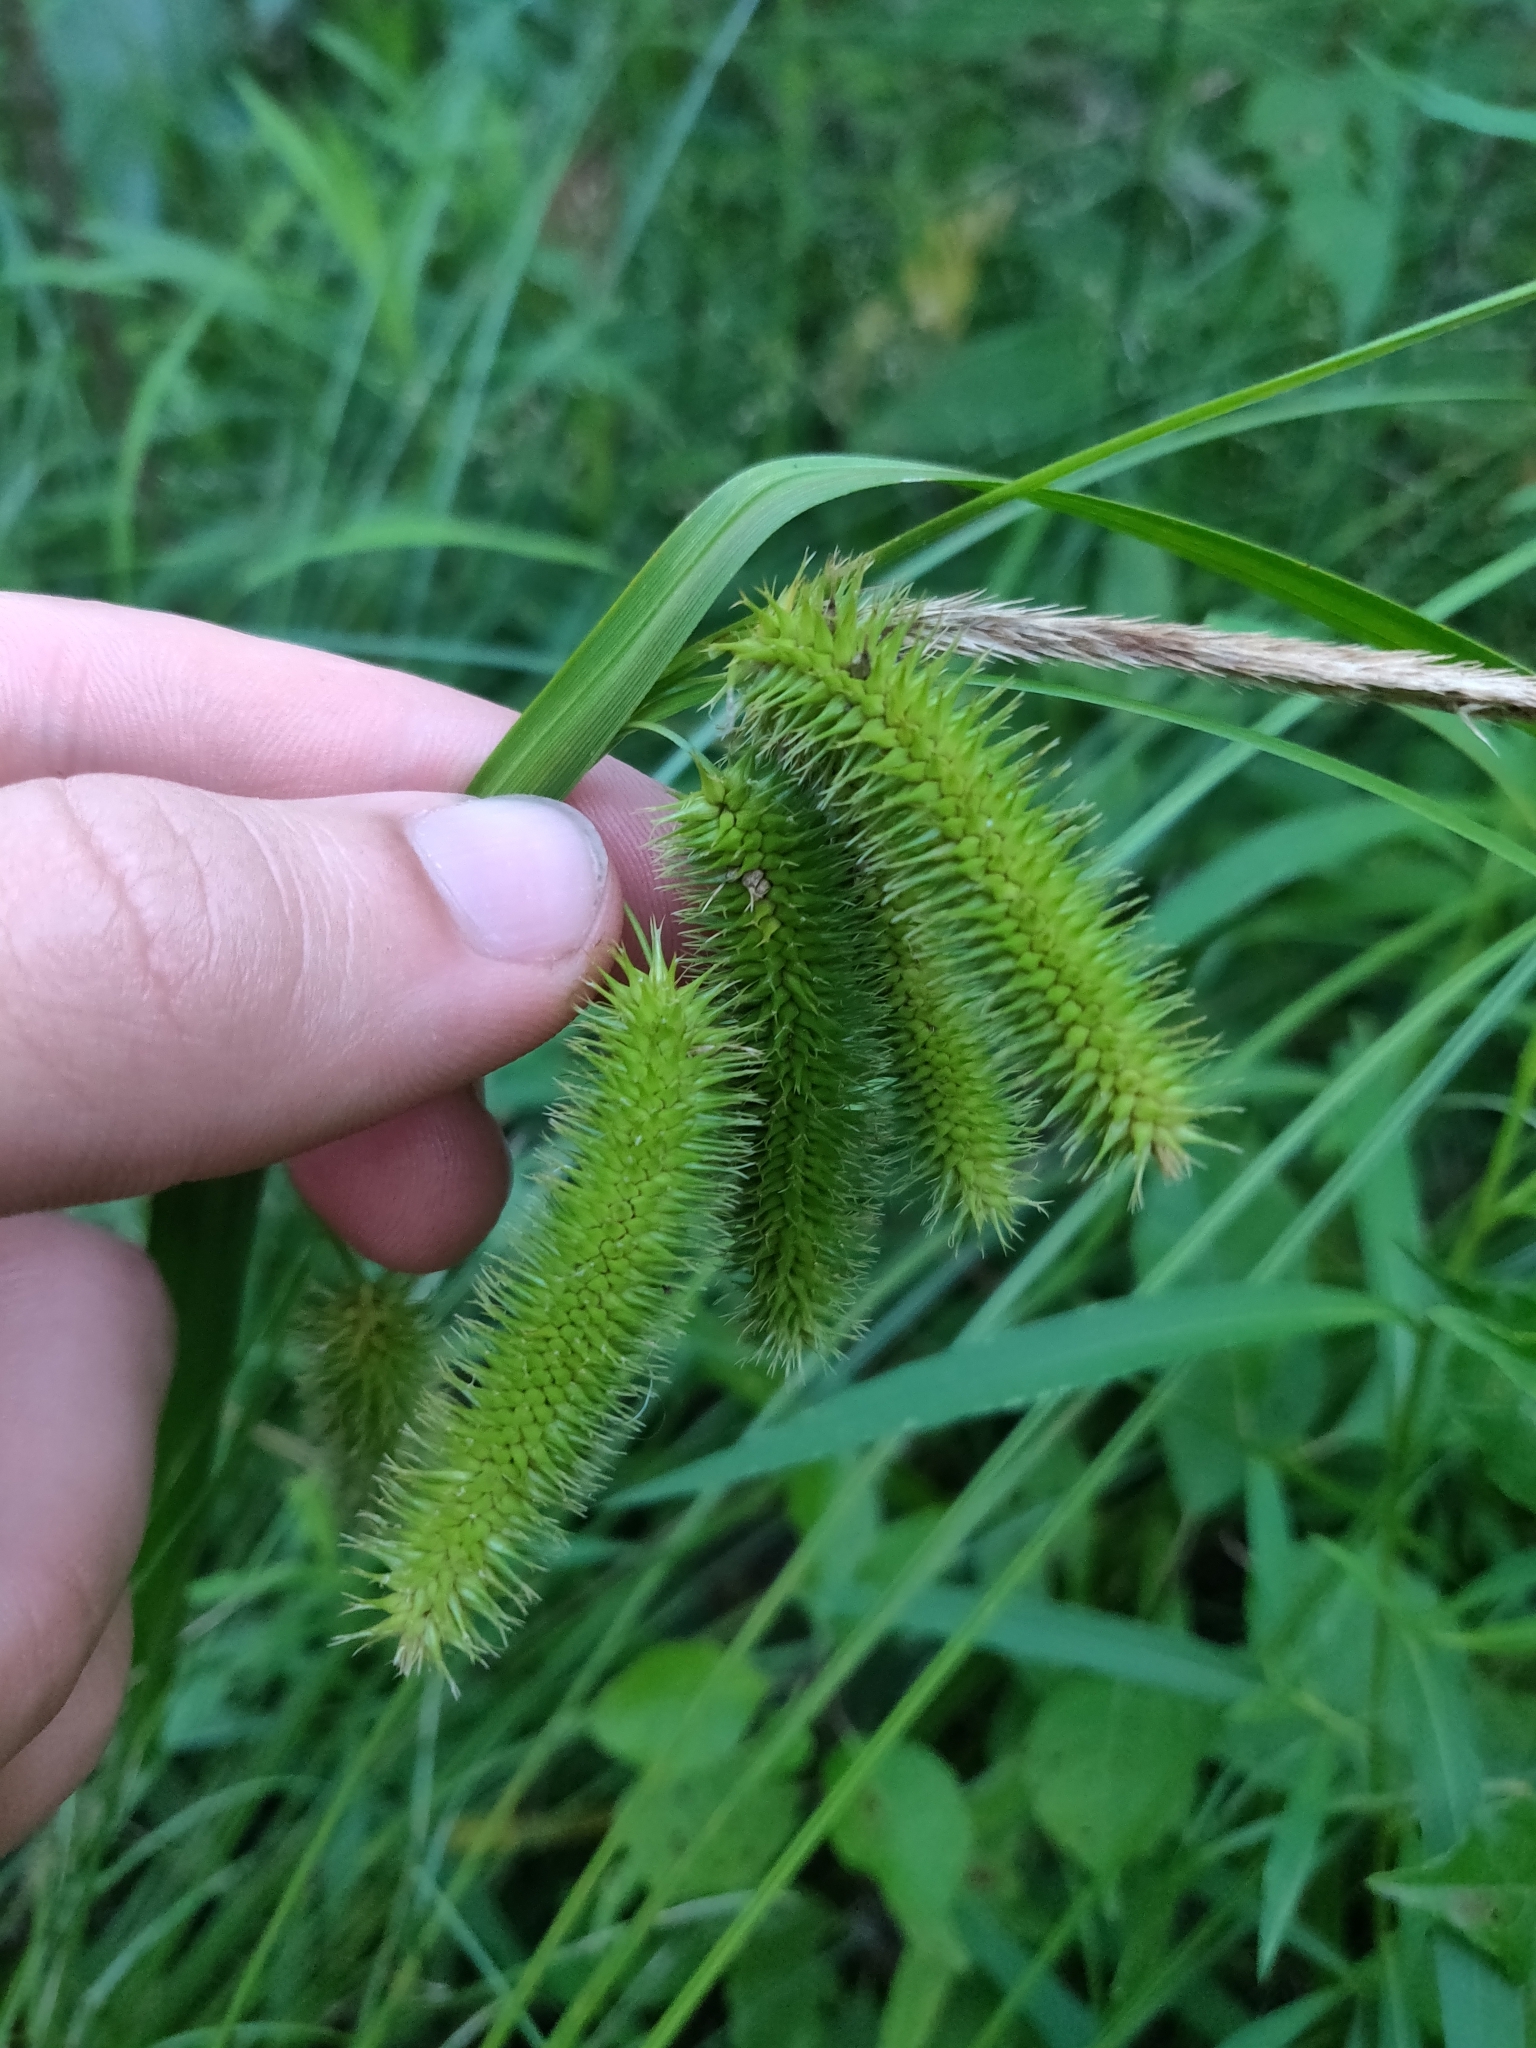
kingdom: Plantae
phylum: Tracheophyta
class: Liliopsida
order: Poales
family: Cyperaceae
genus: Carex
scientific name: Carex comosa
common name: Bristly sedge
